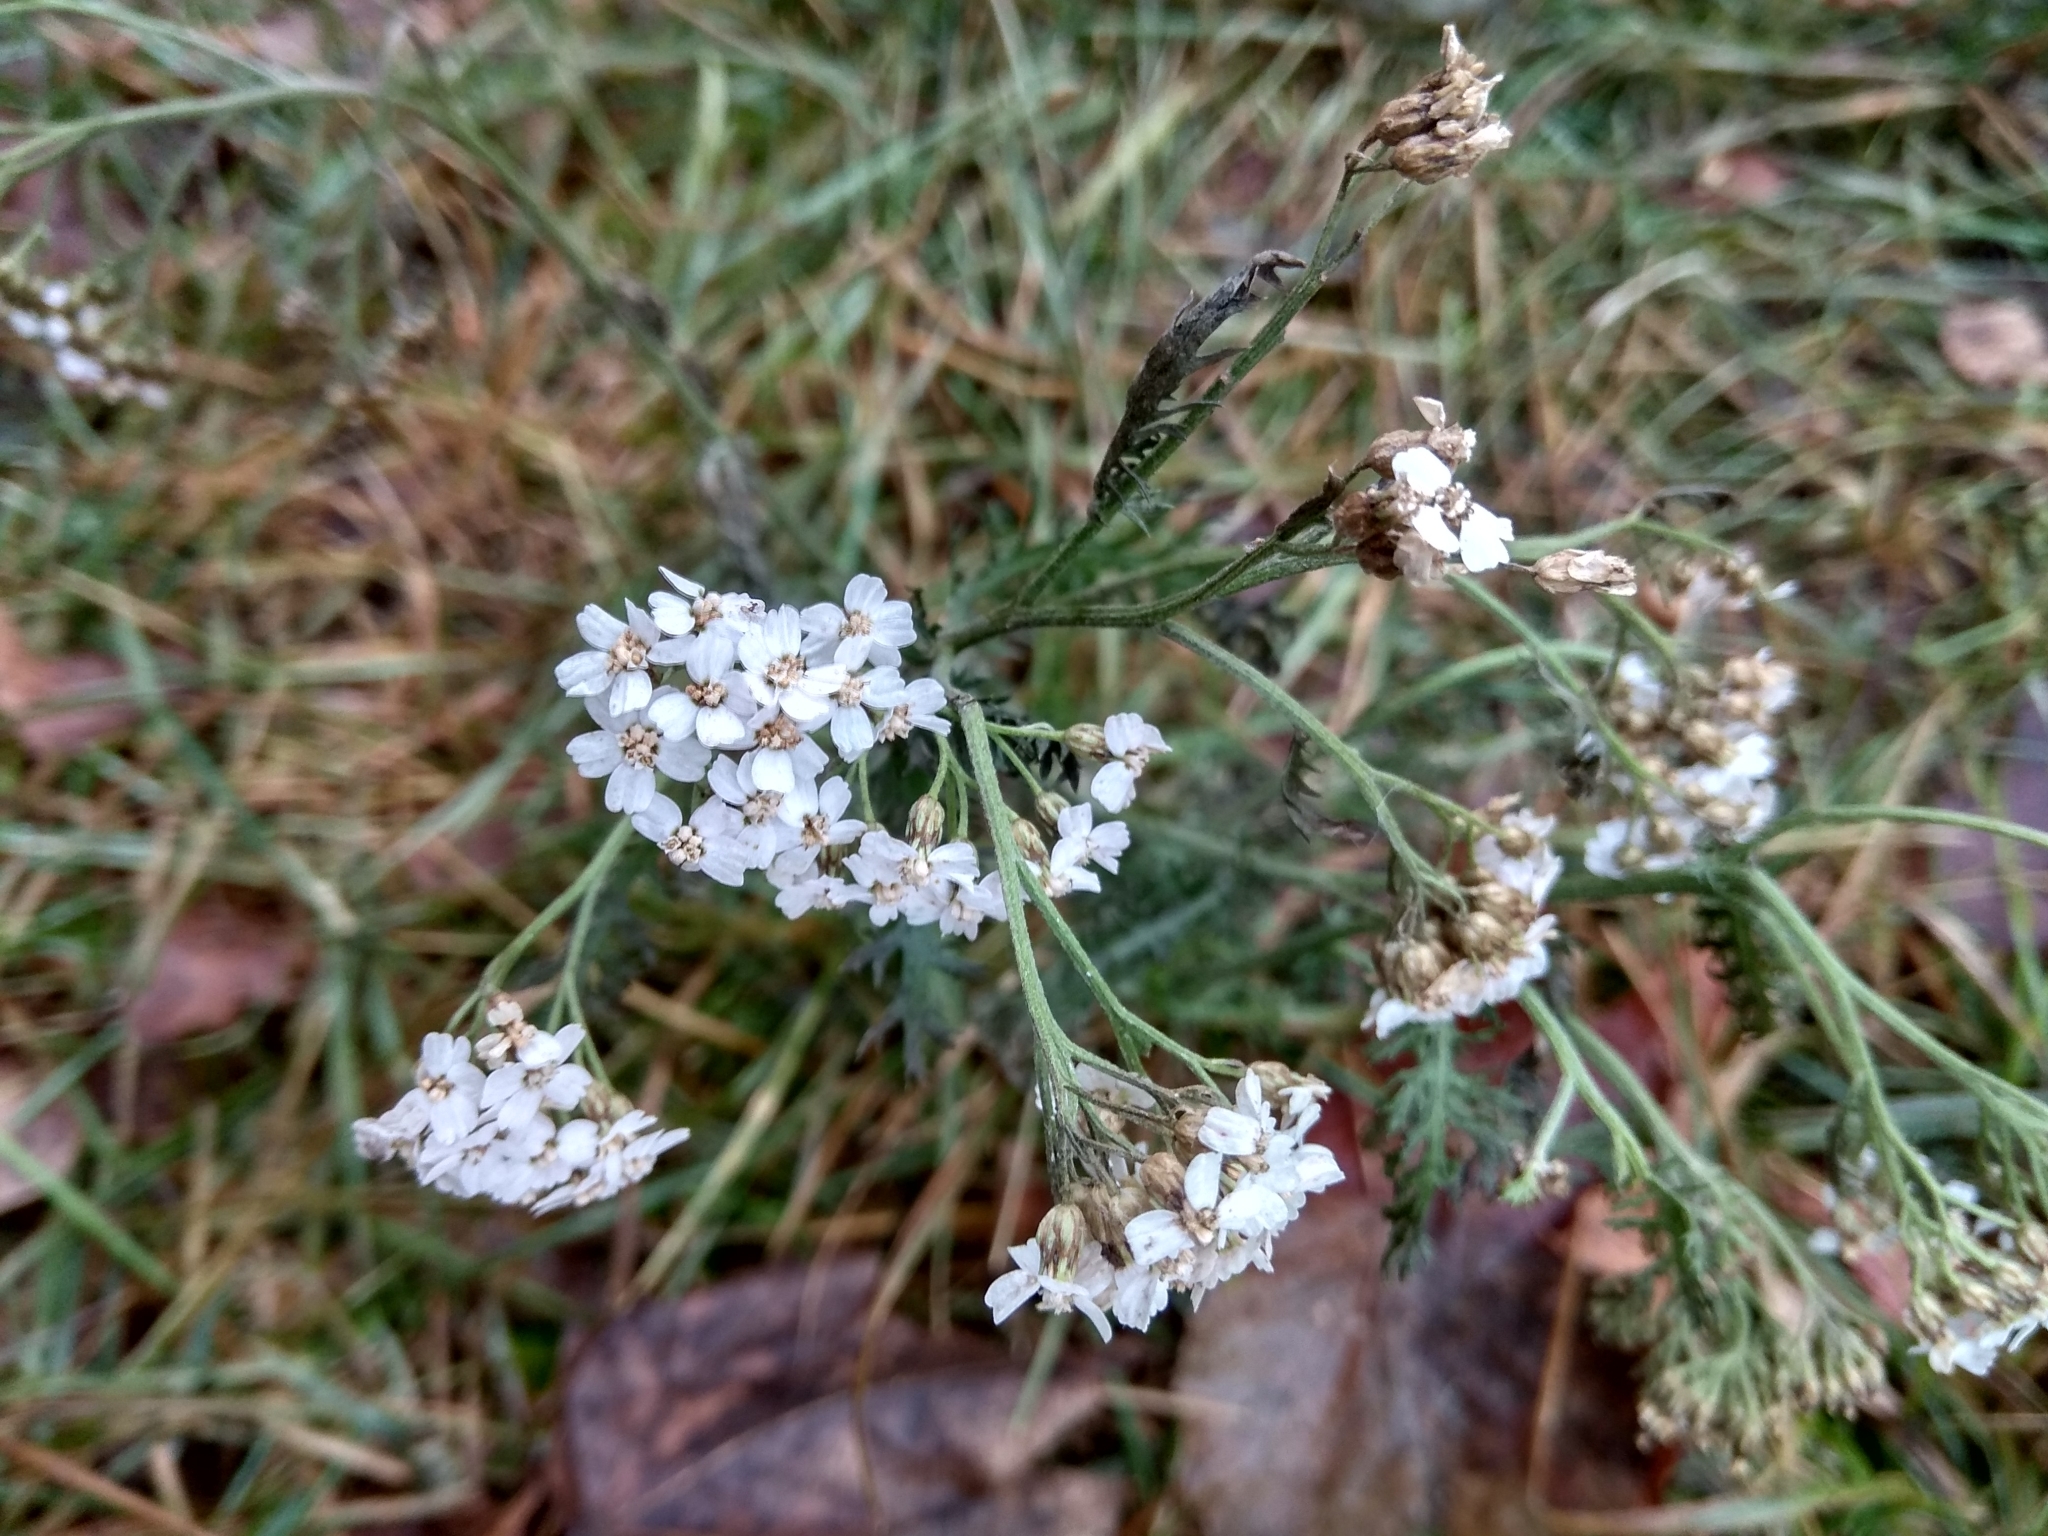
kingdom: Plantae
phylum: Tracheophyta
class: Magnoliopsida
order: Asterales
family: Asteraceae
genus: Achillea
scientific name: Achillea millefolium
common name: Yarrow
